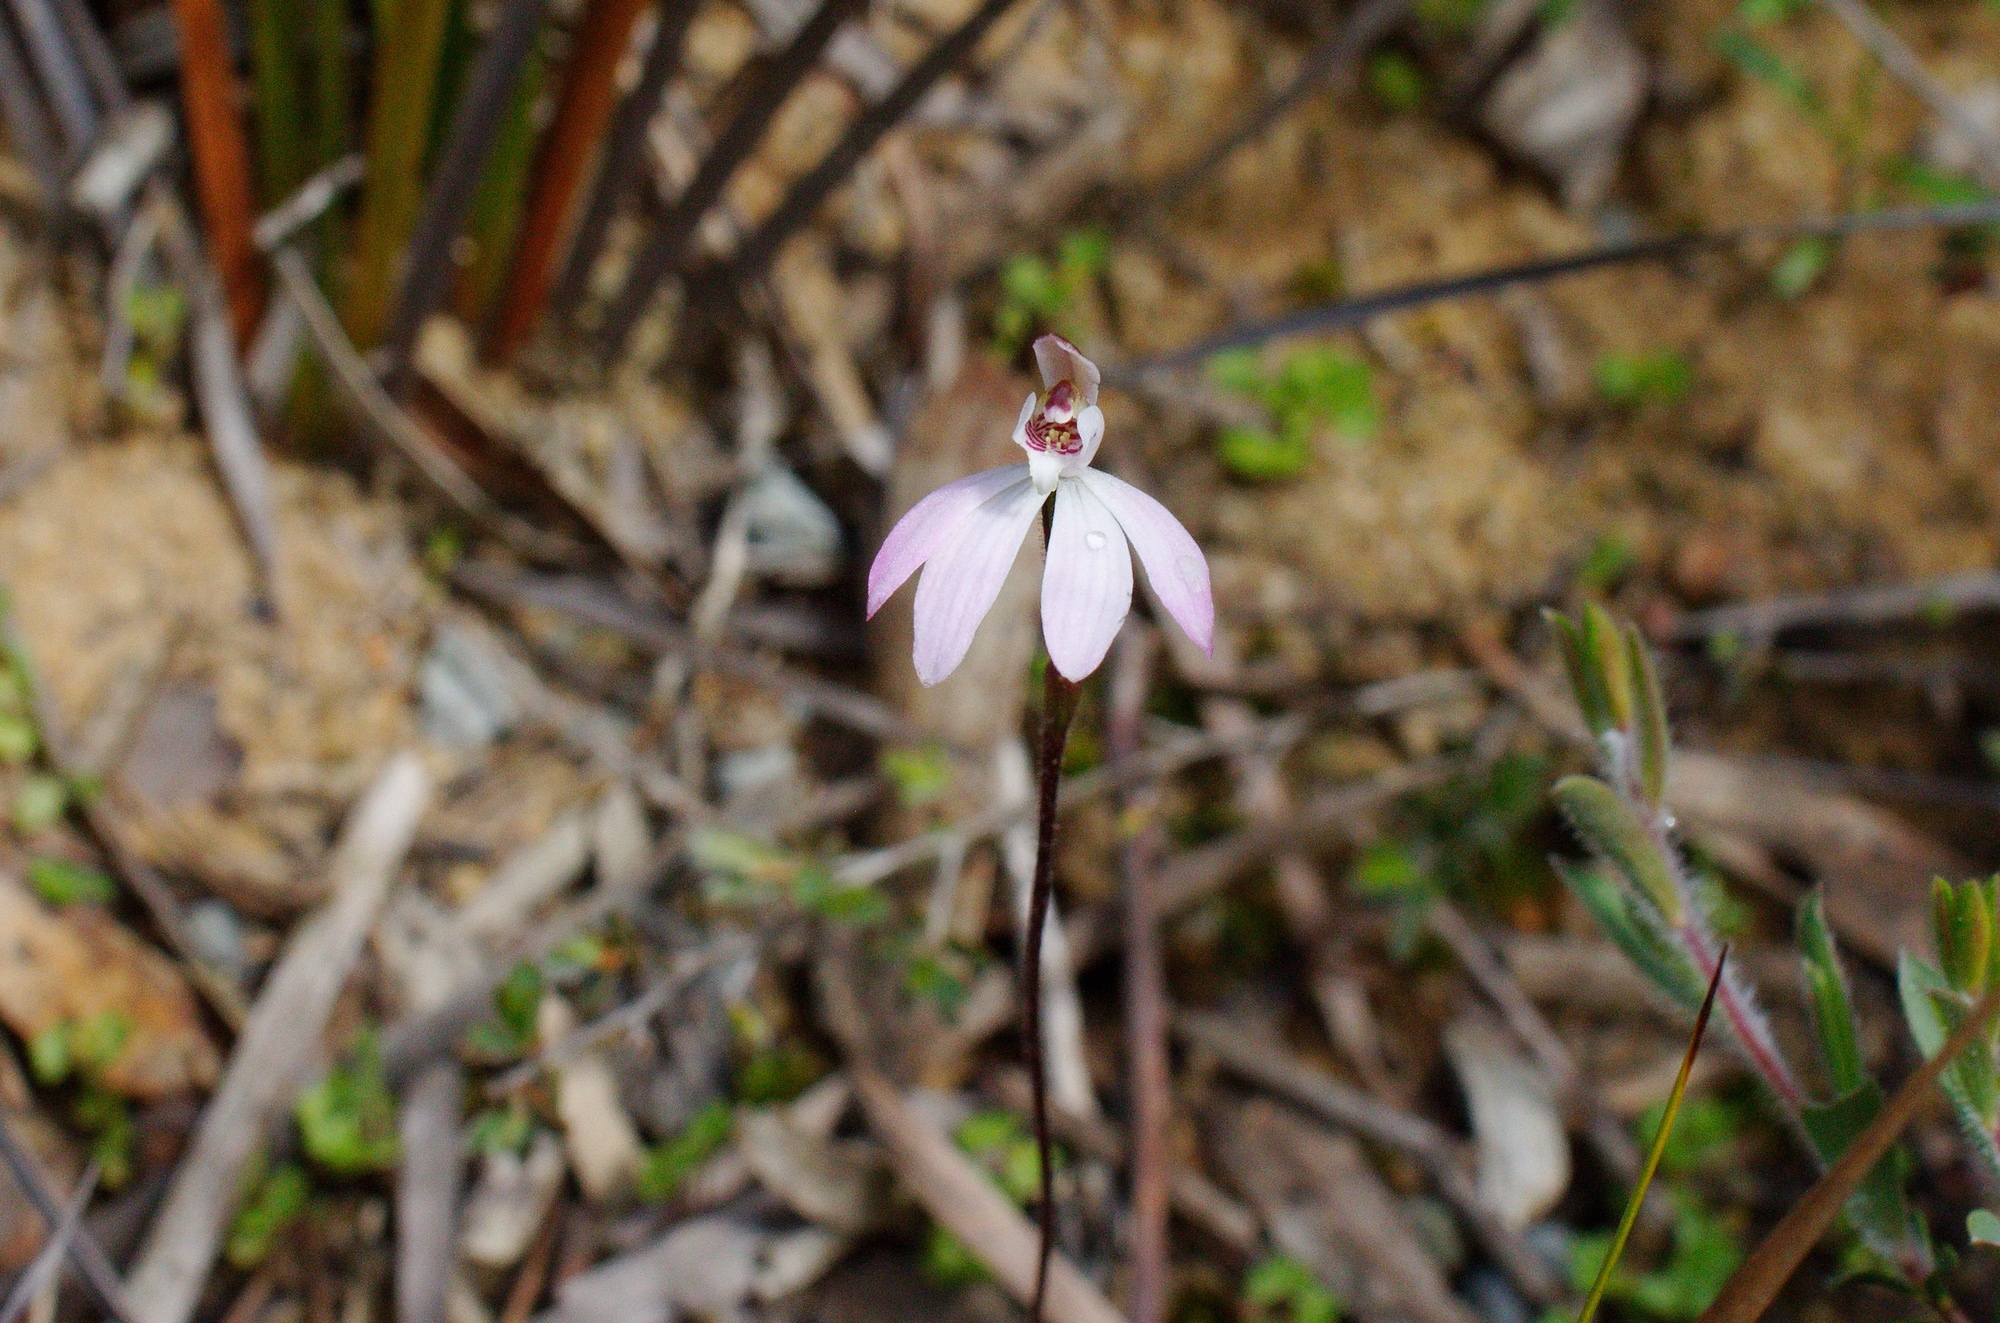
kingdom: Plantae
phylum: Tracheophyta
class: Liliopsida
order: Asparagales
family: Orchidaceae
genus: Caladenia
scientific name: Caladenia carnea
